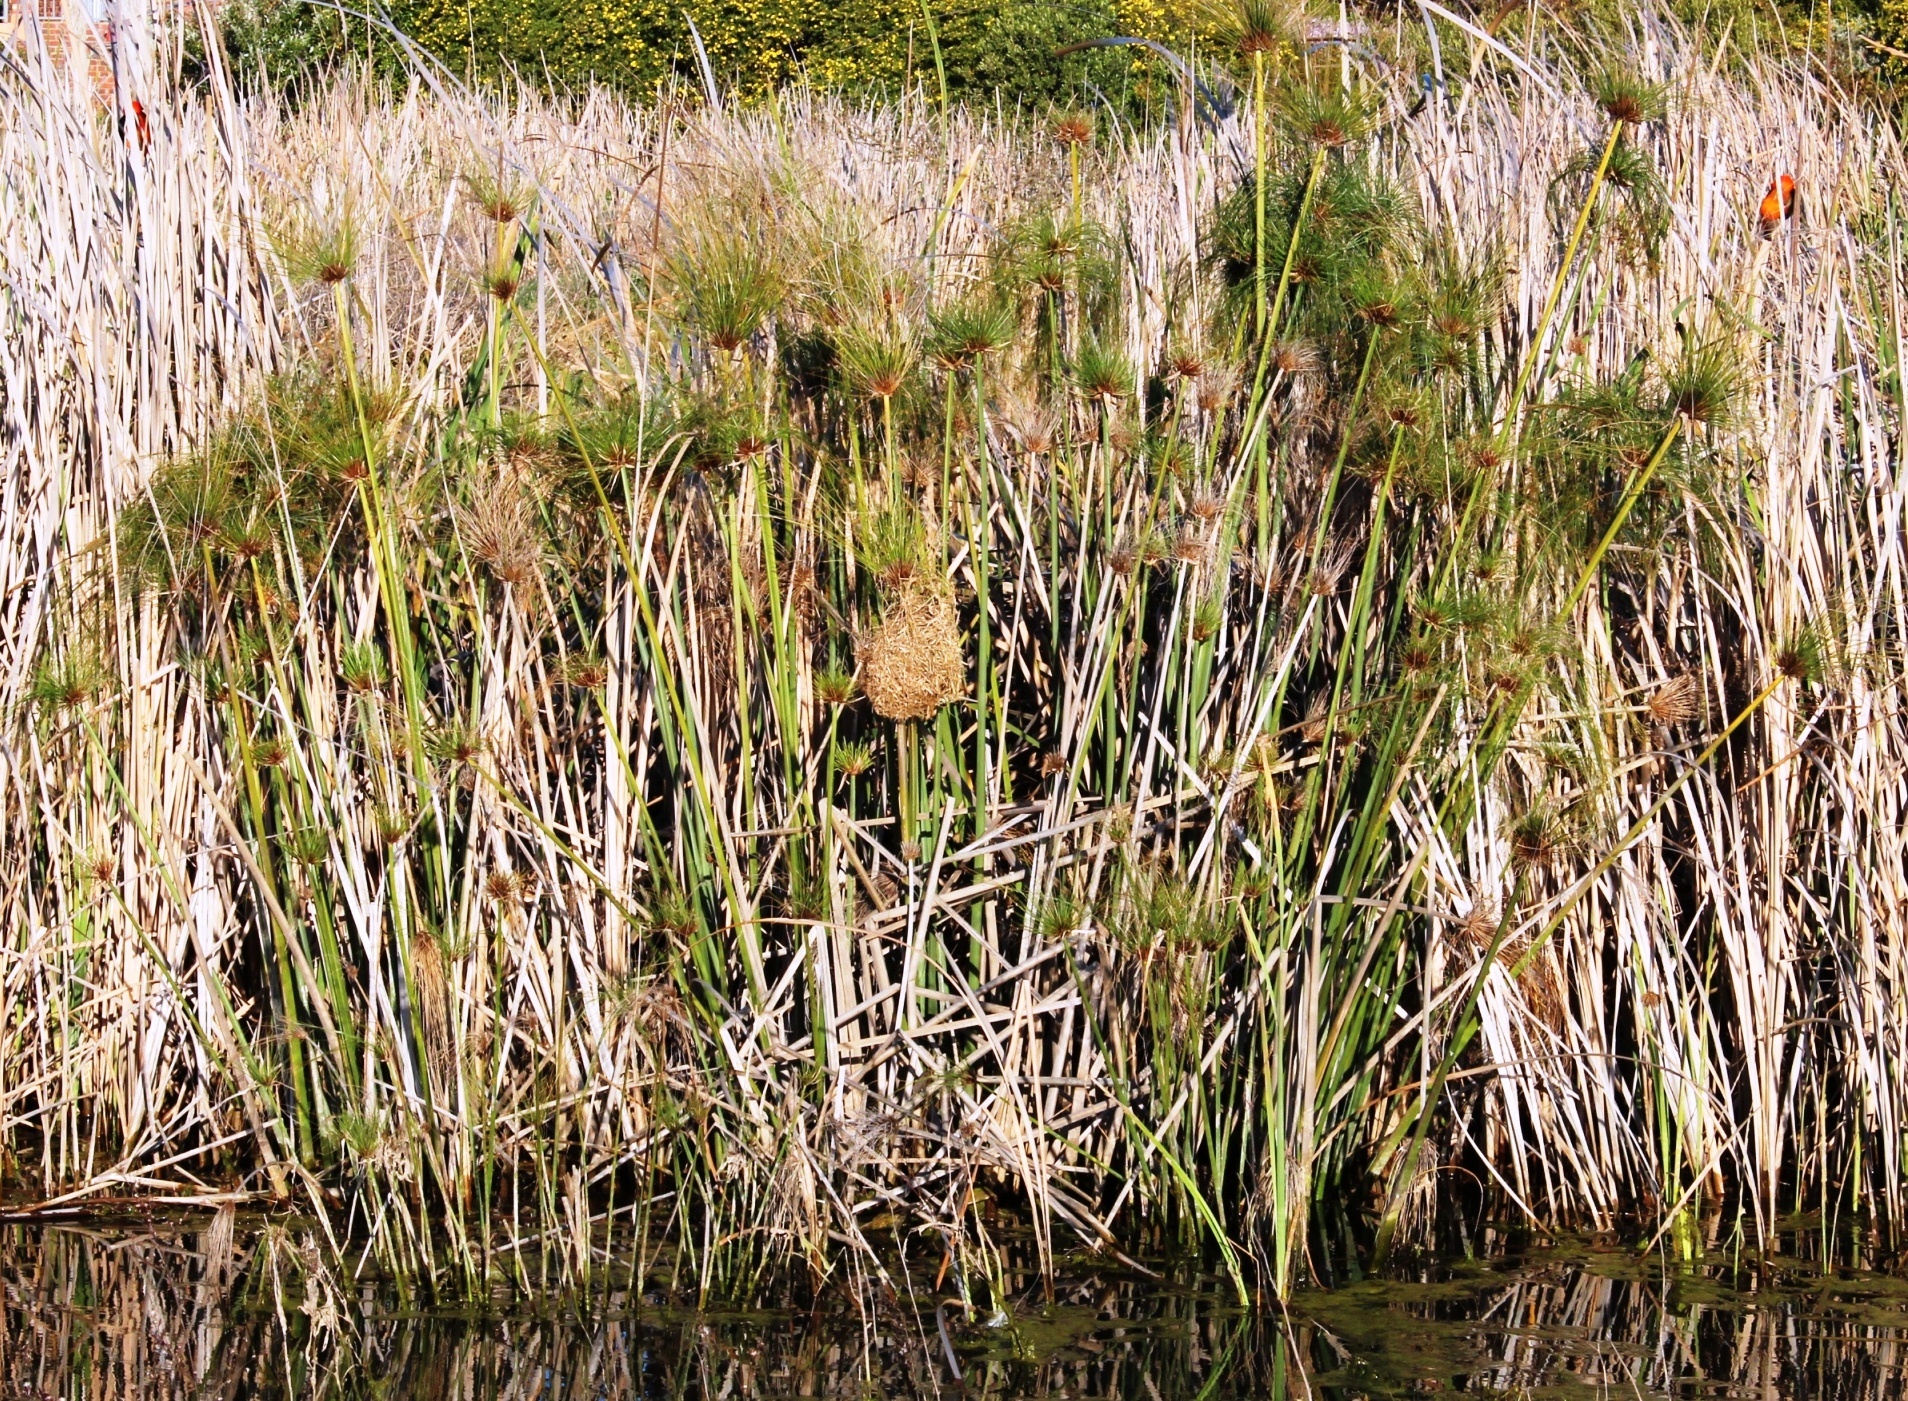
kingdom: Plantae
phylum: Tracheophyta
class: Liliopsida
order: Poales
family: Cyperaceae
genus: Cyperus
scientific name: Cyperus papyrus
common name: Papyrus
